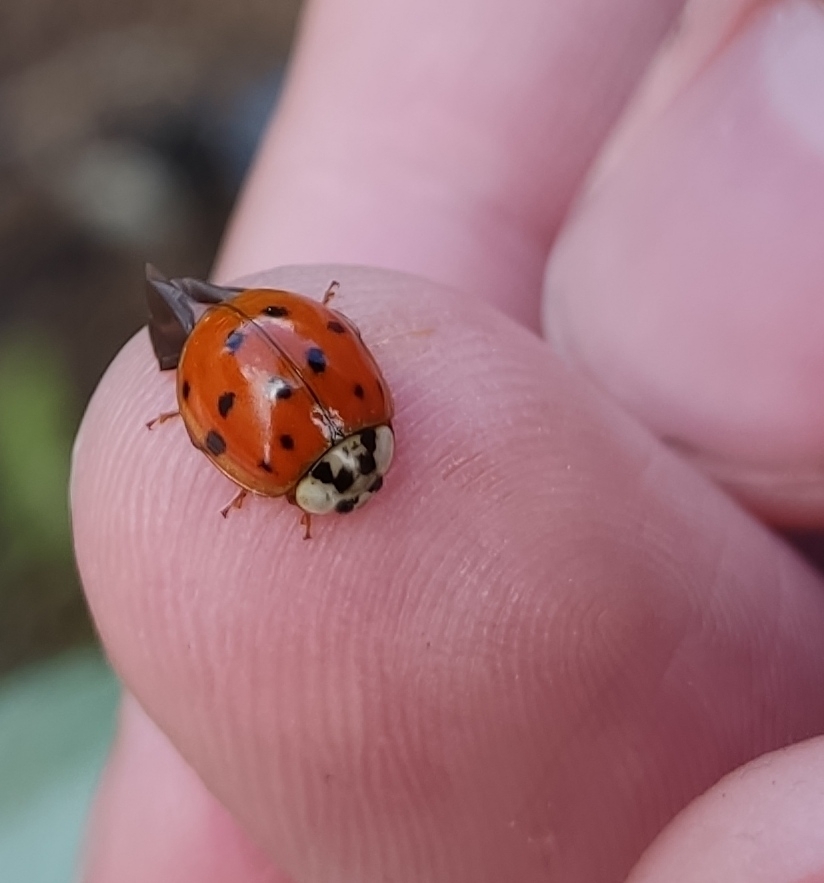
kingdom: Animalia
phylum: Arthropoda
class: Insecta
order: Coleoptera
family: Coccinellidae
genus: Harmonia
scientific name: Harmonia axyridis
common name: Harlequin ladybird
